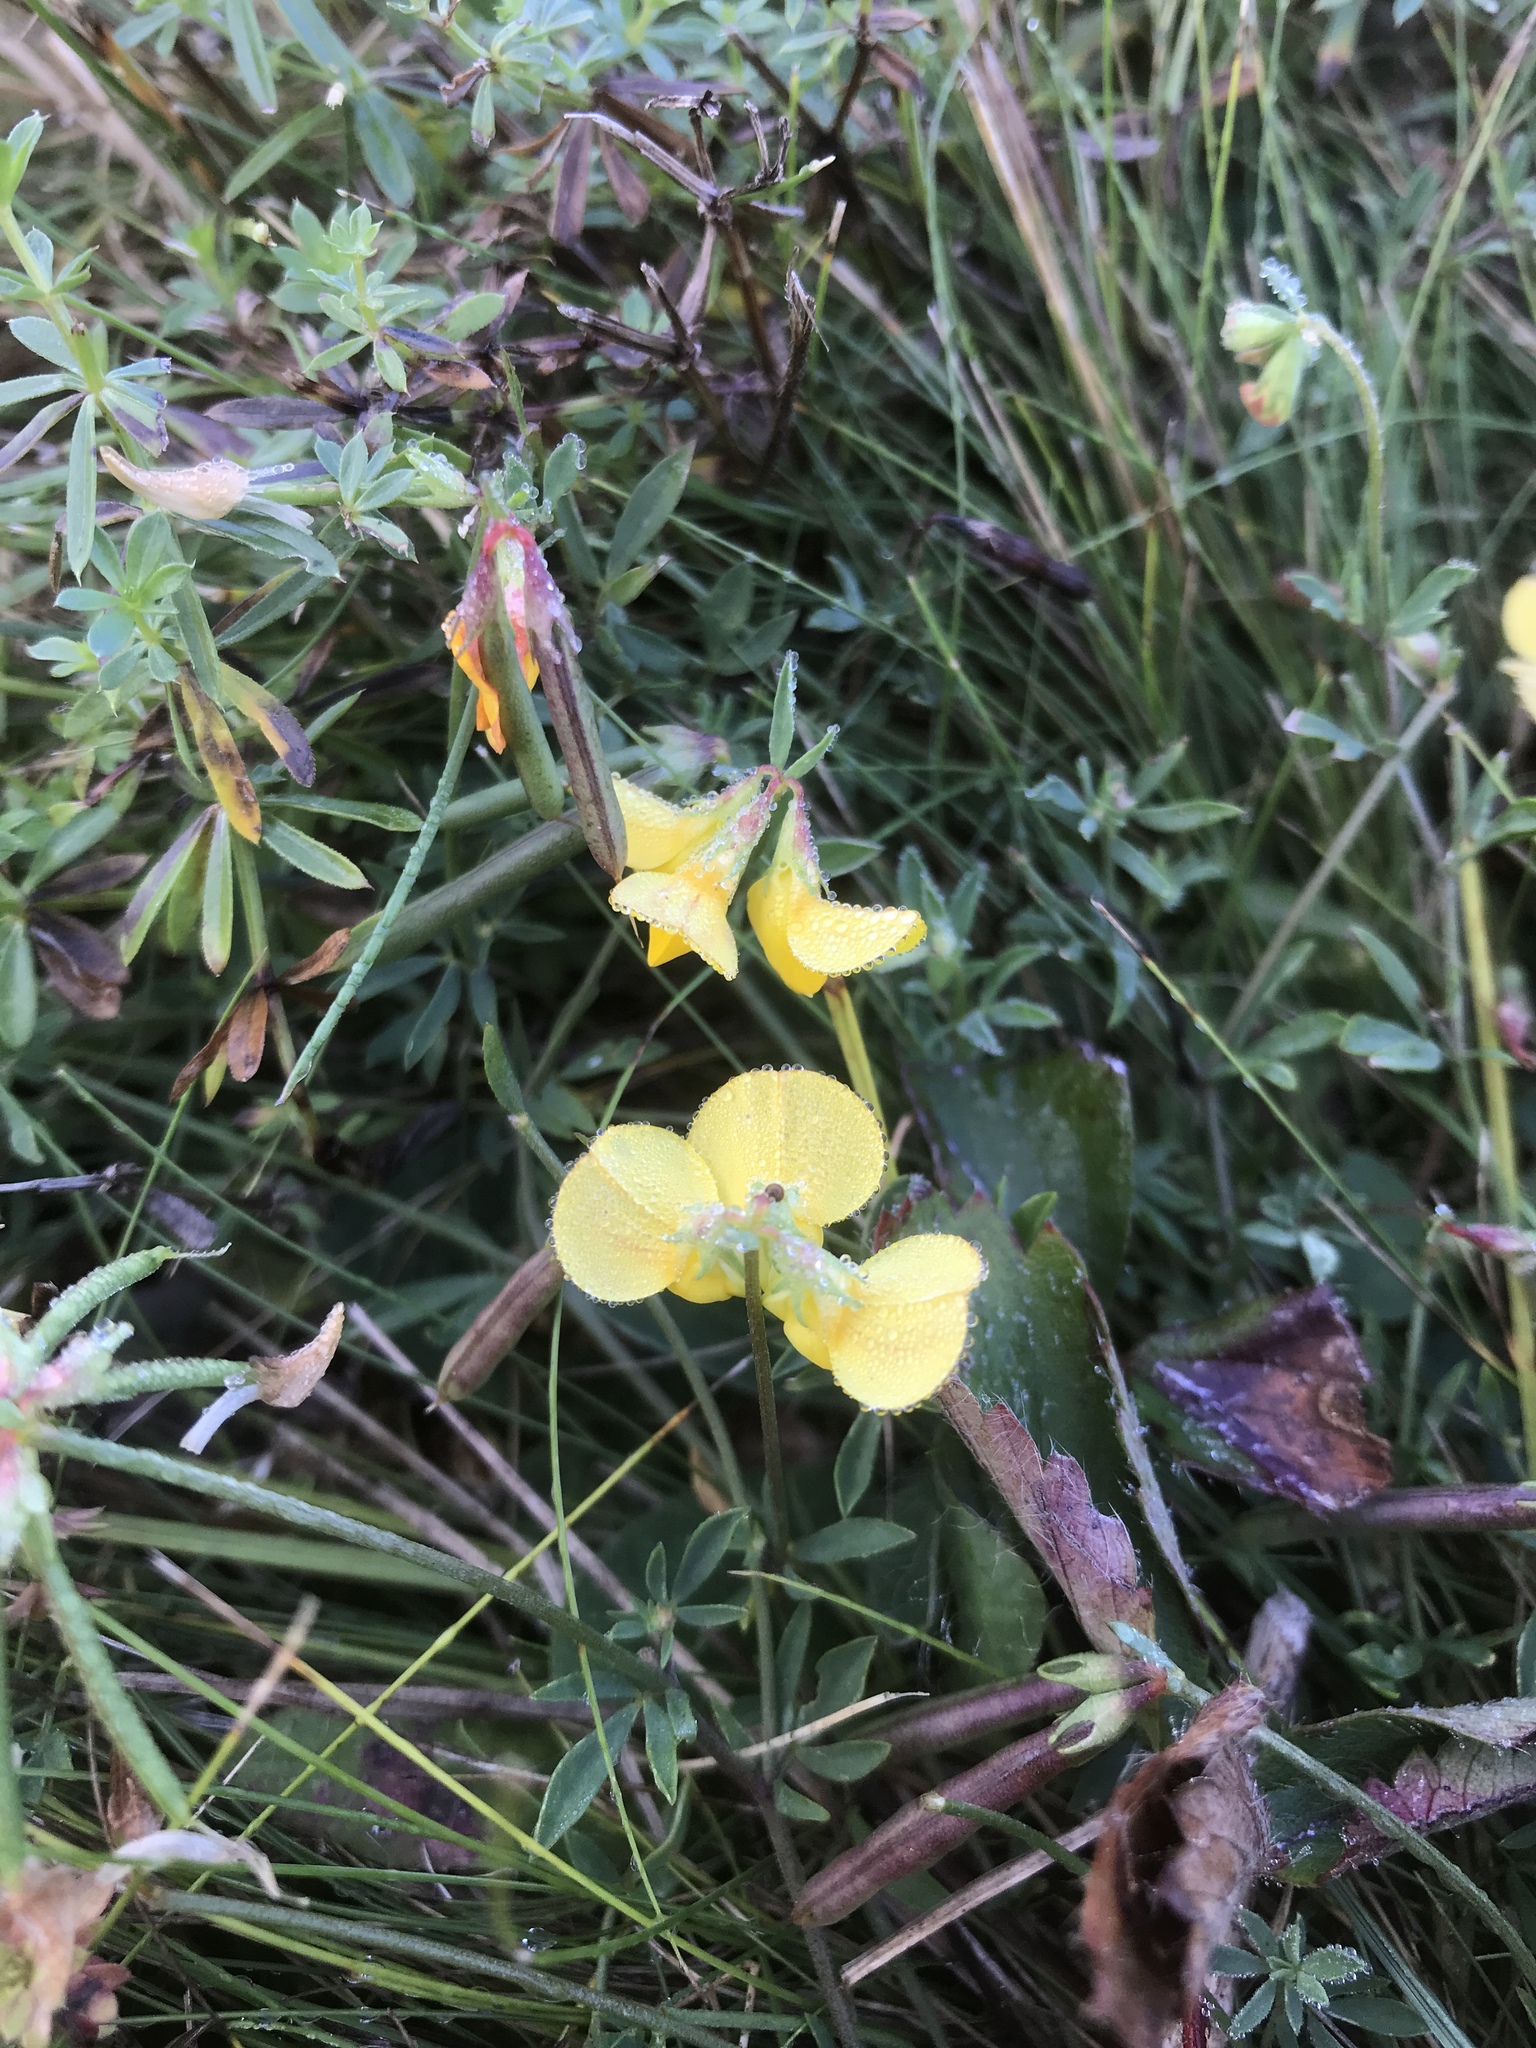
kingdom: Plantae
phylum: Tracheophyta
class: Magnoliopsida
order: Fabales
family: Fabaceae
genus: Lotus
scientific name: Lotus corniculatus
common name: Common bird's-foot-trefoil
